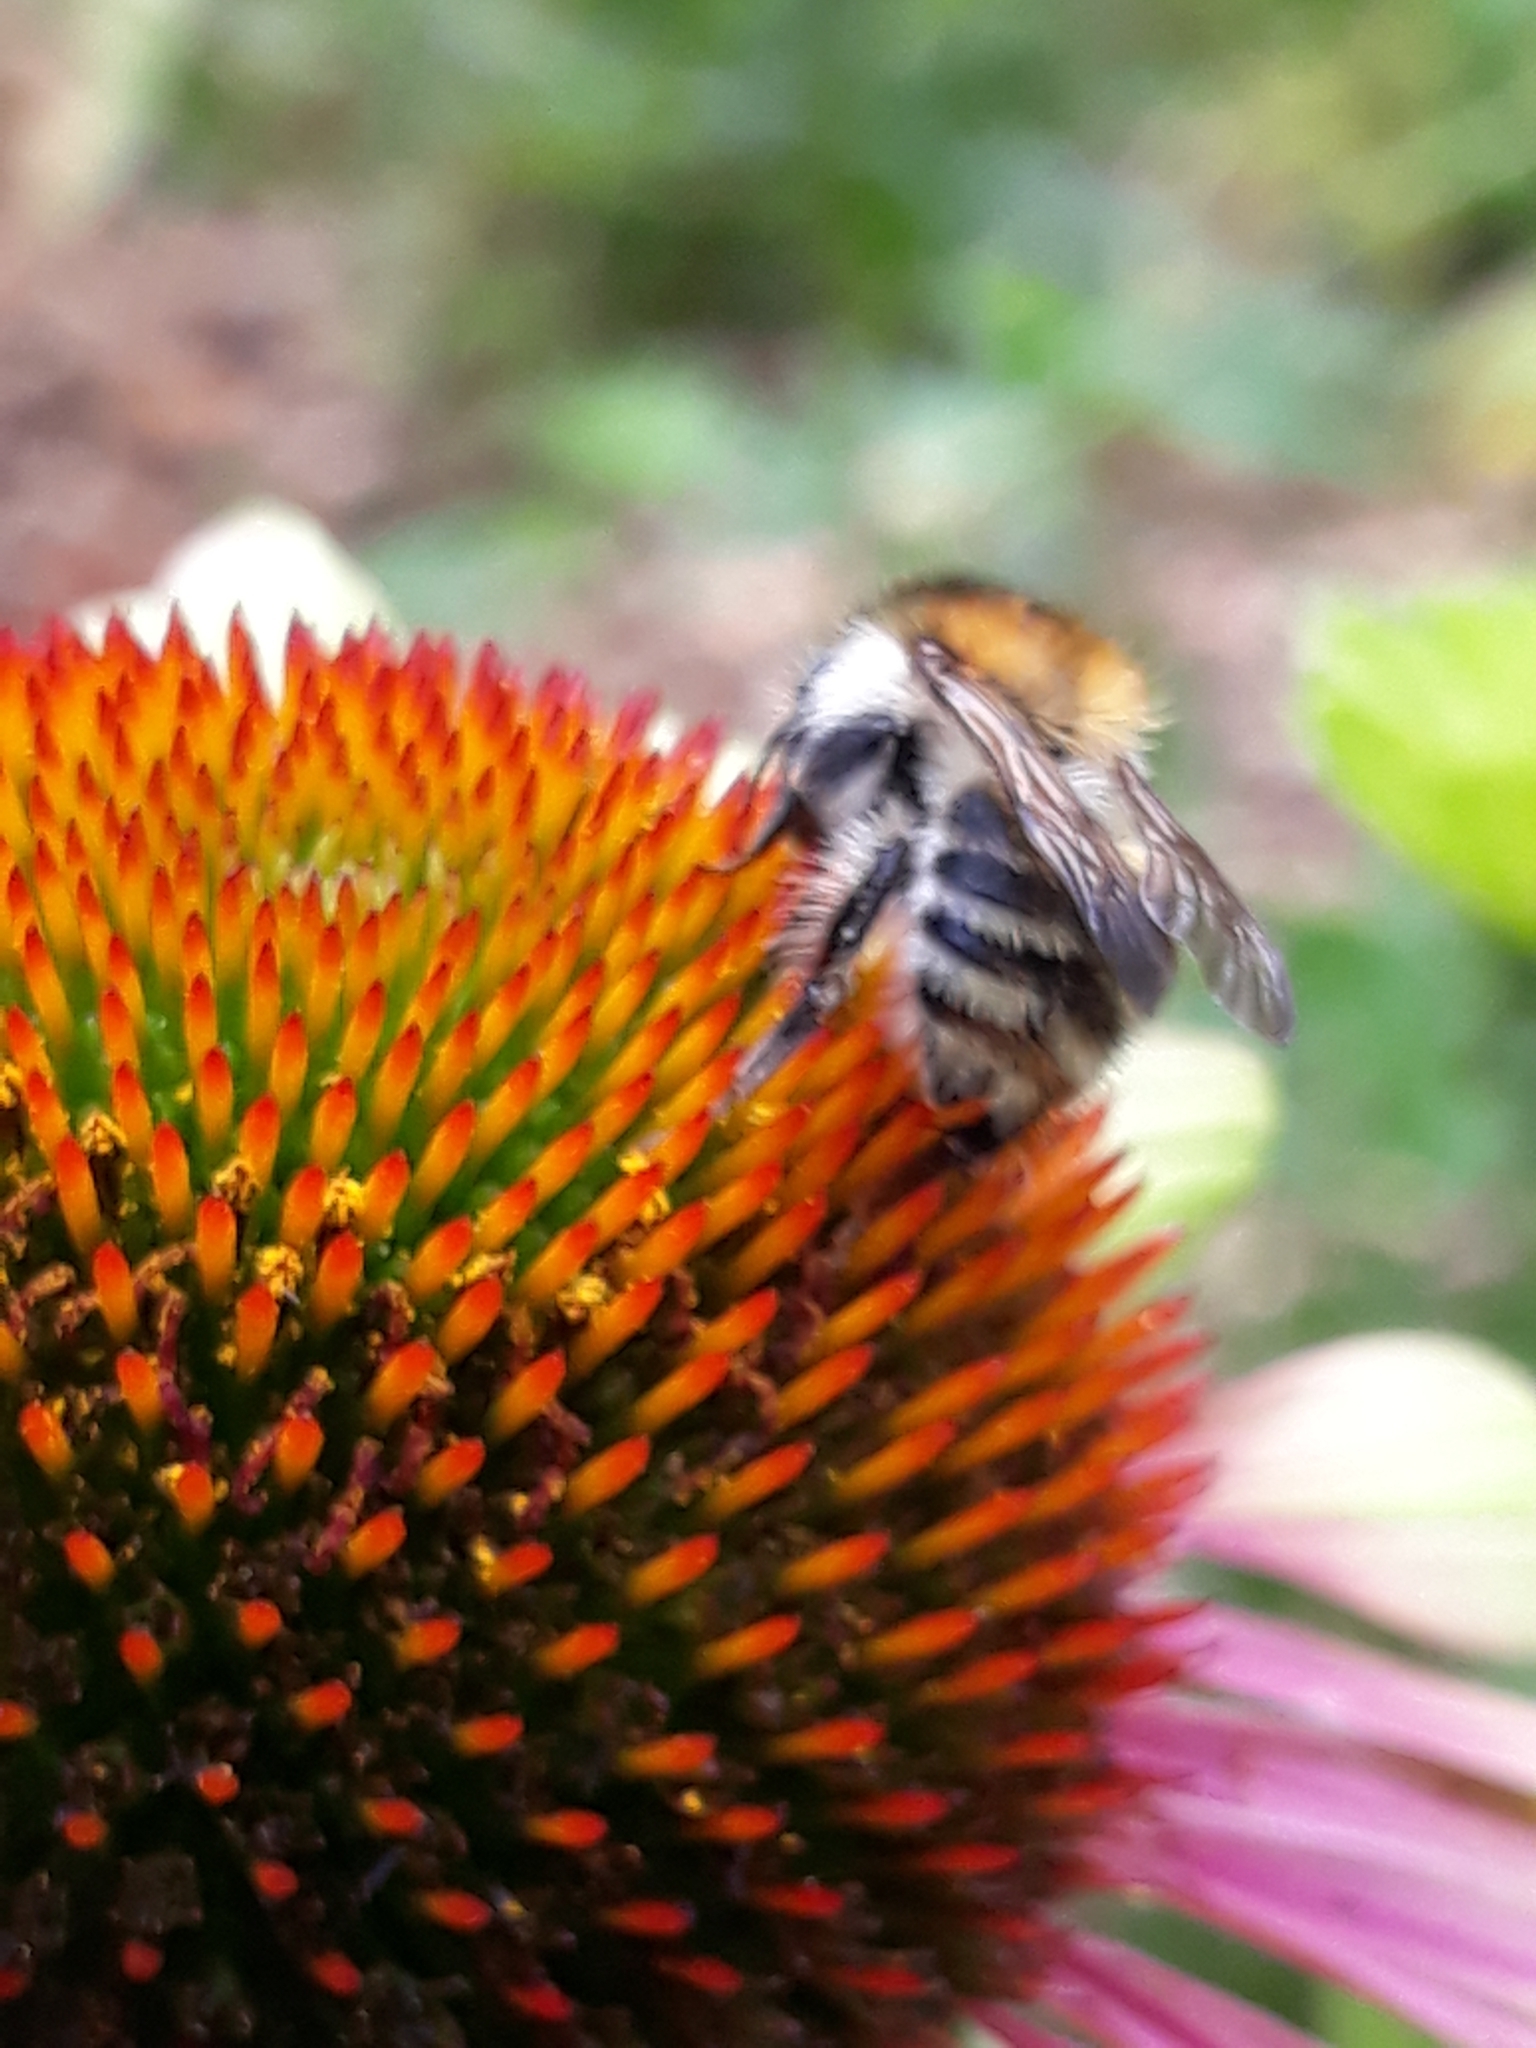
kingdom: Animalia
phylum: Arthropoda
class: Insecta
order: Hymenoptera
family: Apidae
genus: Bombus
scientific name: Bombus pascuorum
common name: Common carder bee
